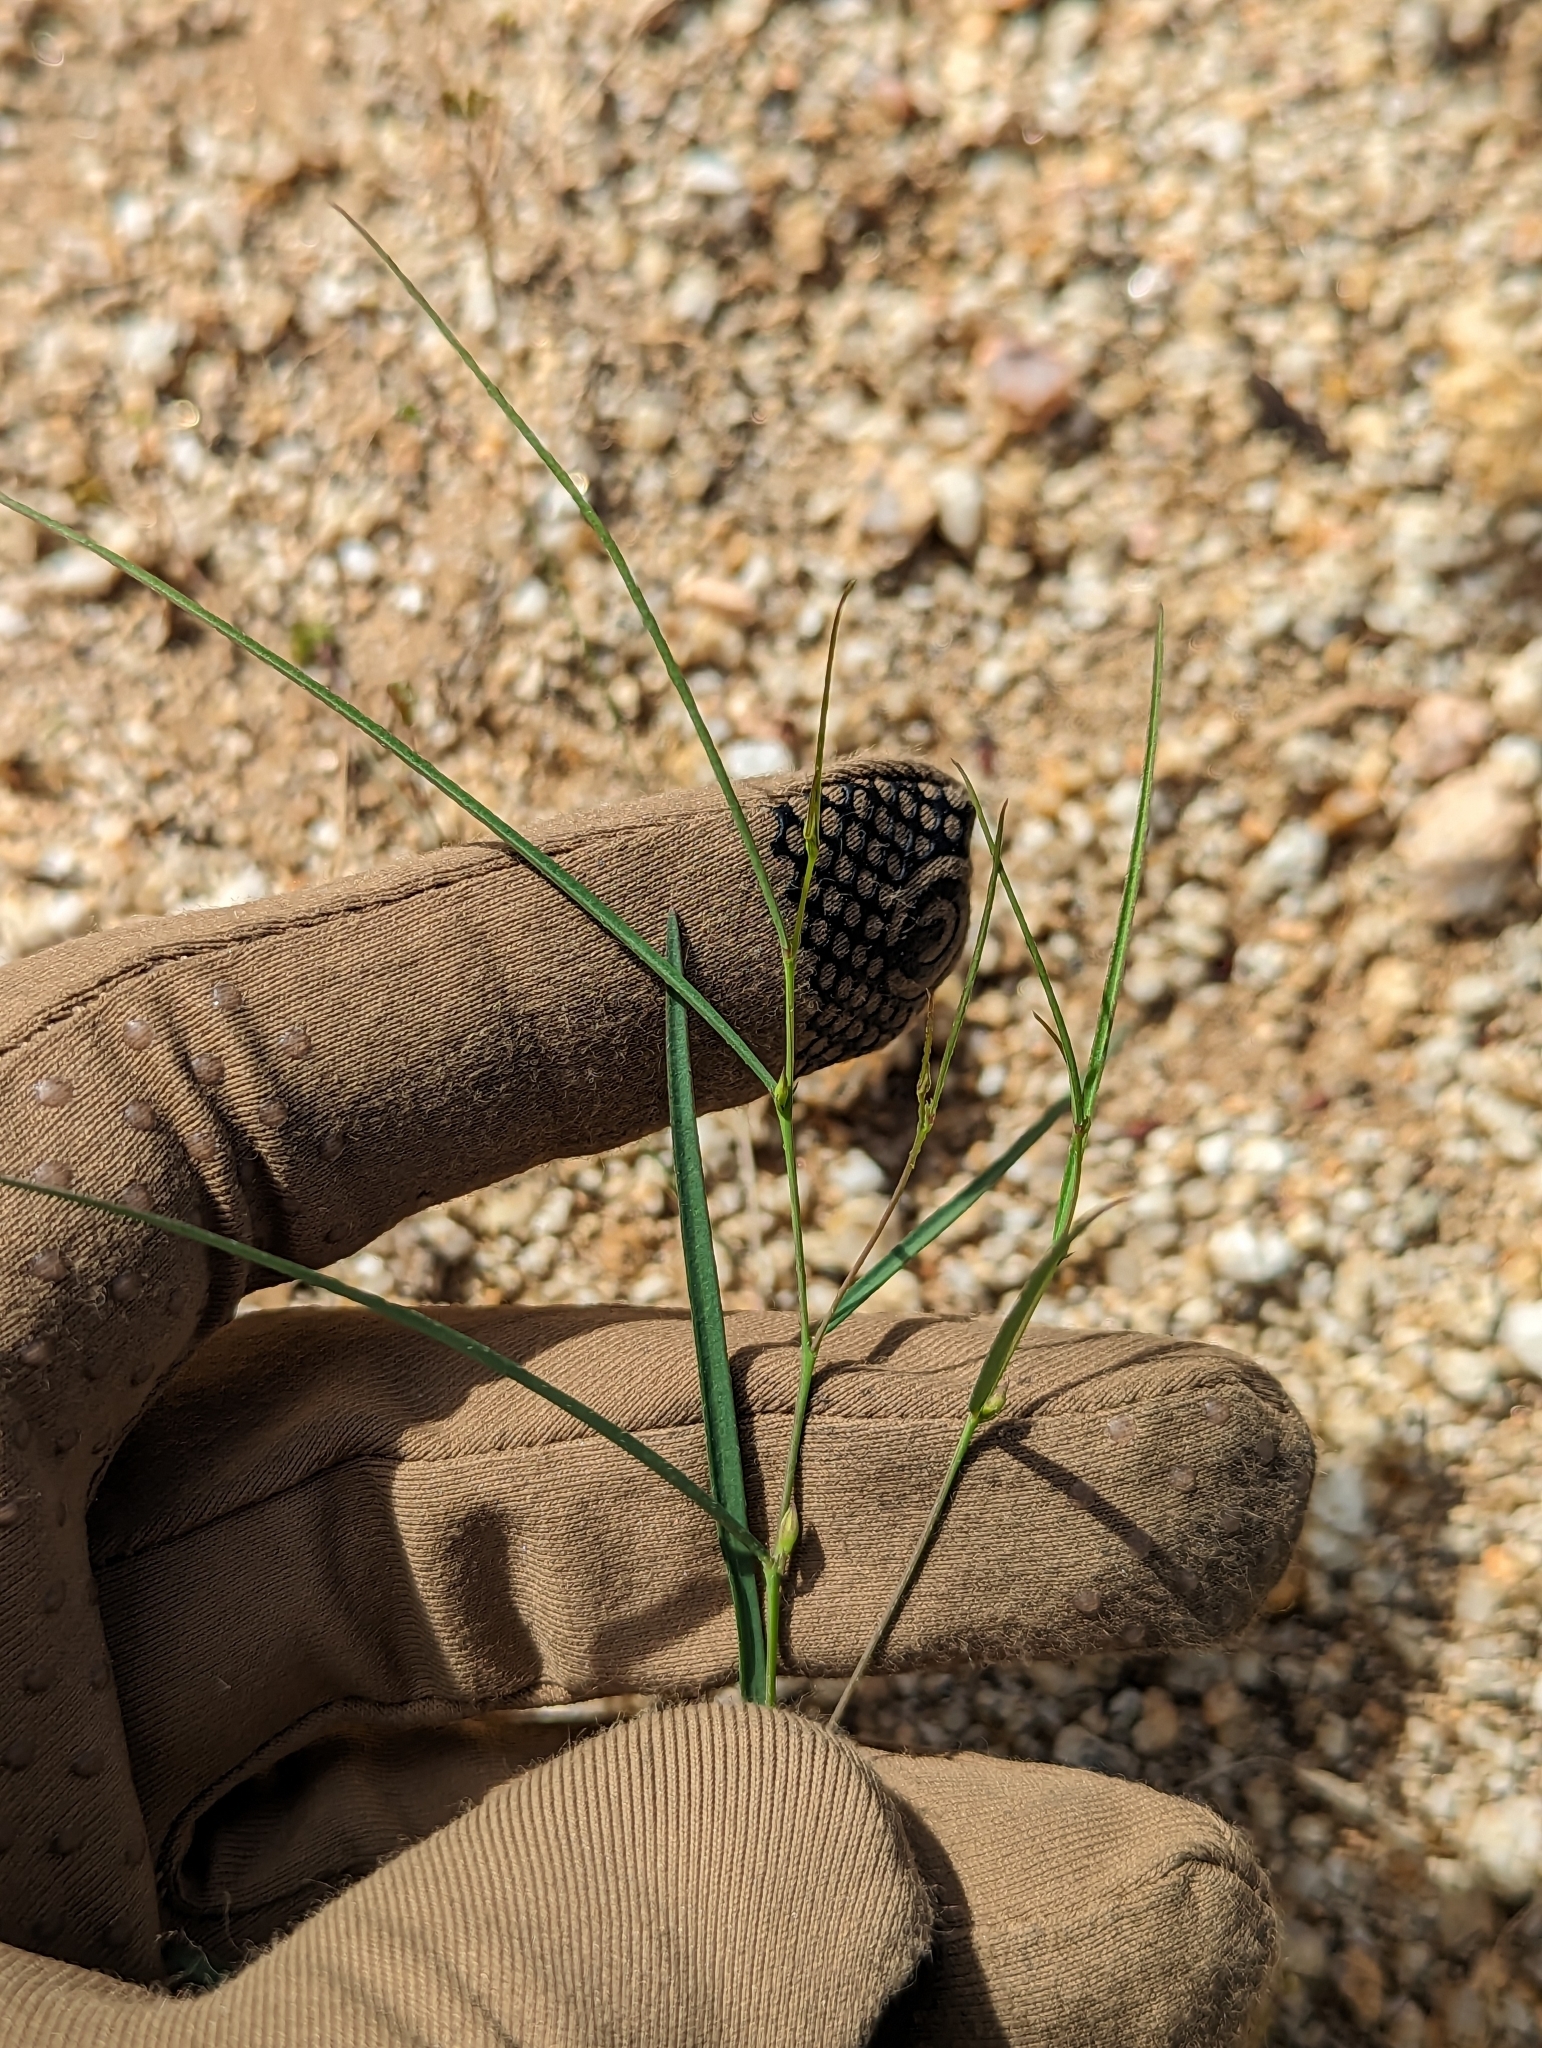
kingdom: Plantae
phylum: Tracheophyta
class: Magnoliopsida
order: Fabales
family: Fabaceae
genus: Sphinctospermum
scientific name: Sphinctospermum constrictum
